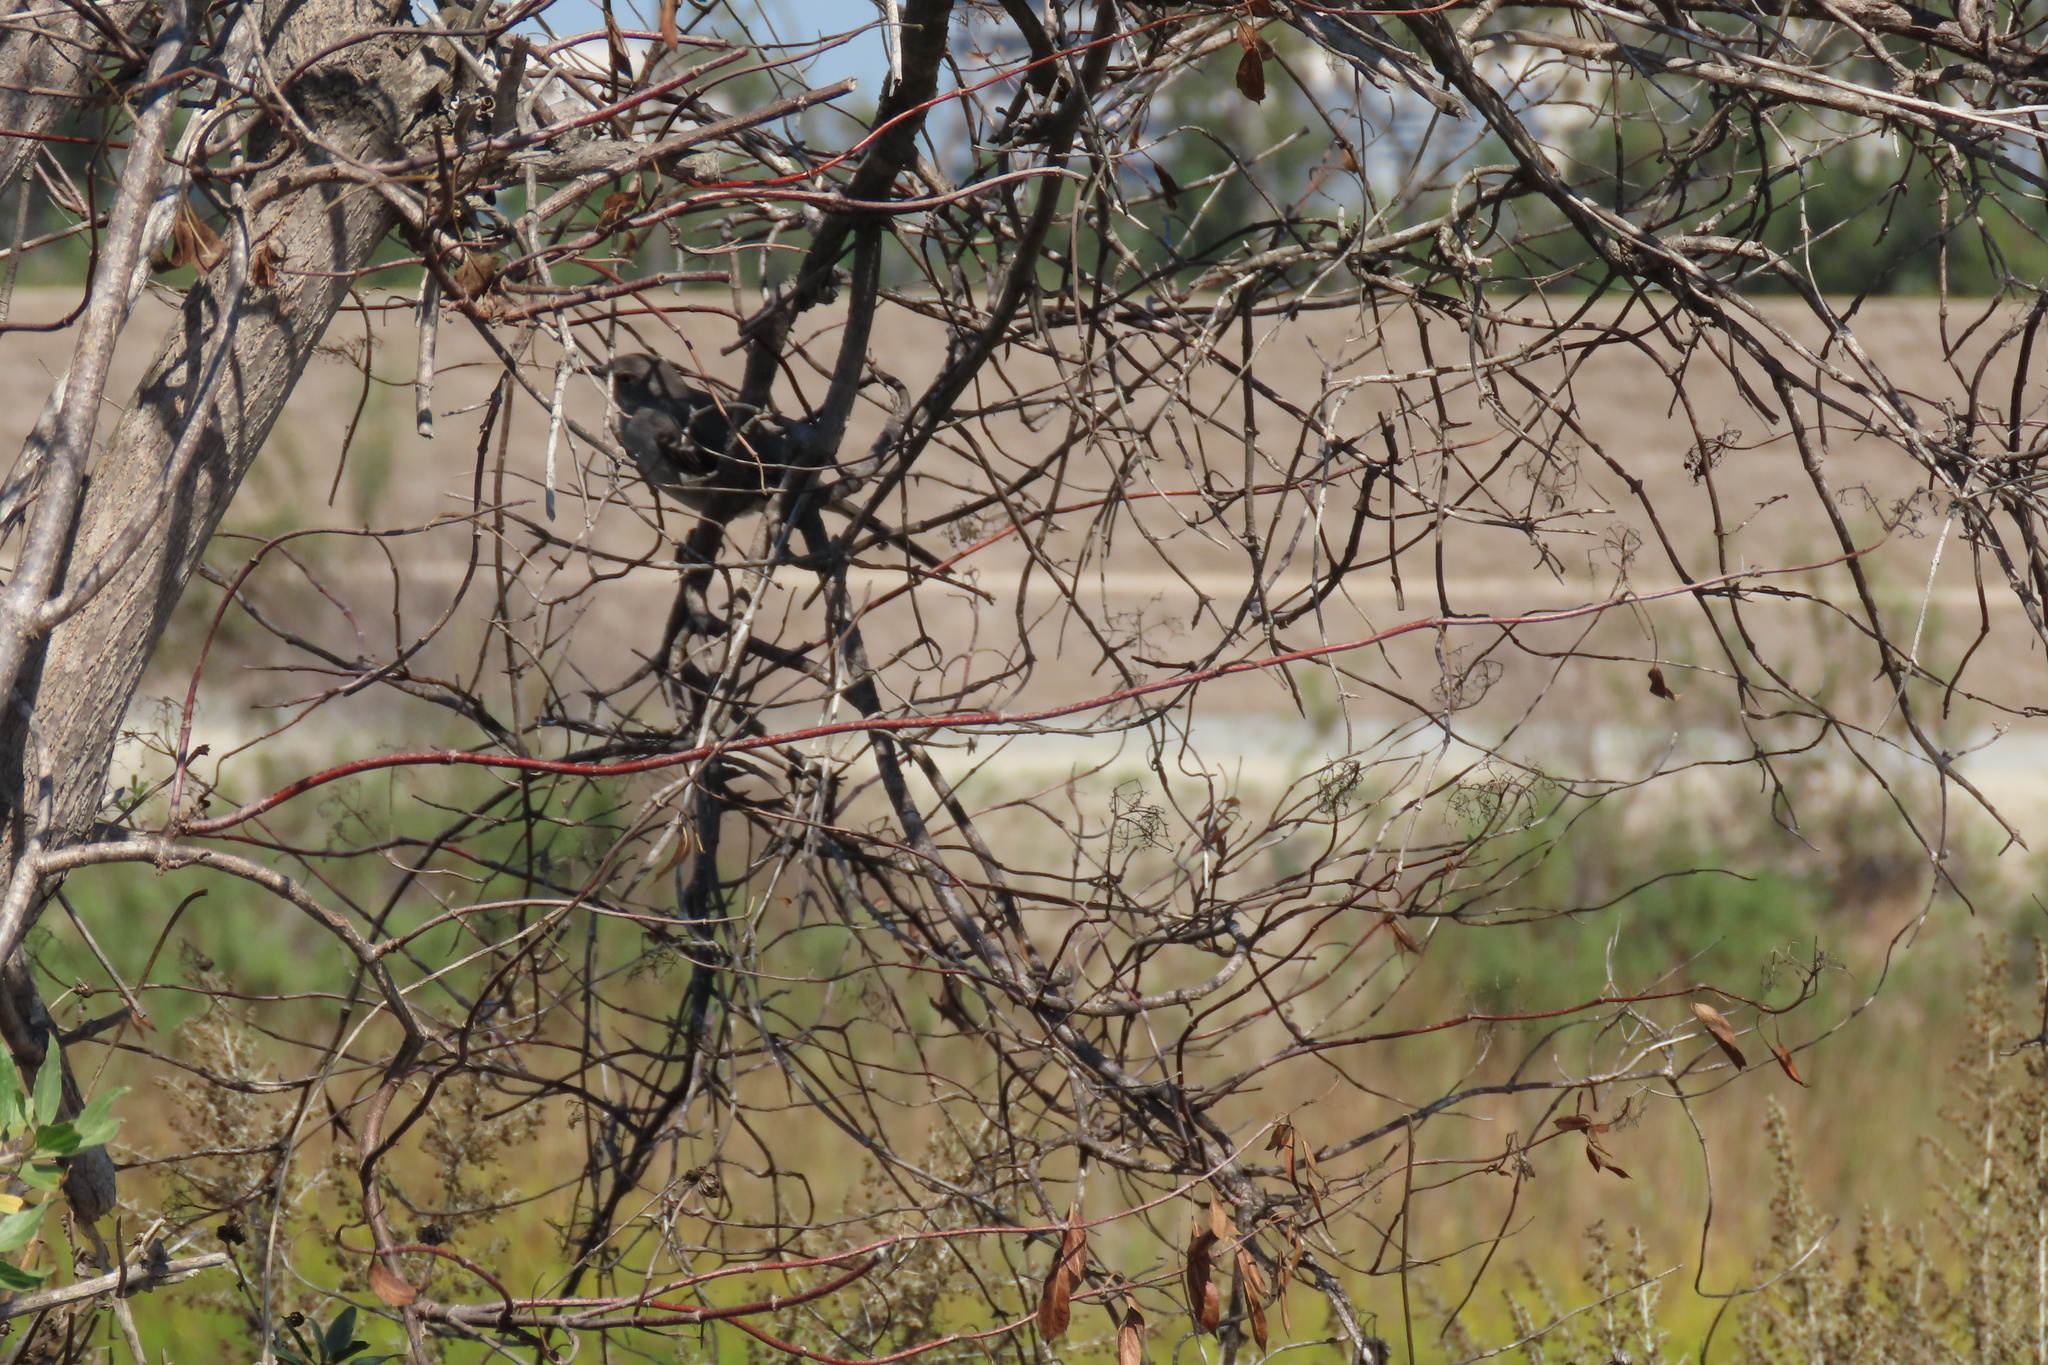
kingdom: Animalia
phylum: Chordata
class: Aves
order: Passeriformes
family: Mimidae
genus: Mimus
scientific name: Mimus polyglottos
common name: Northern mockingbird
